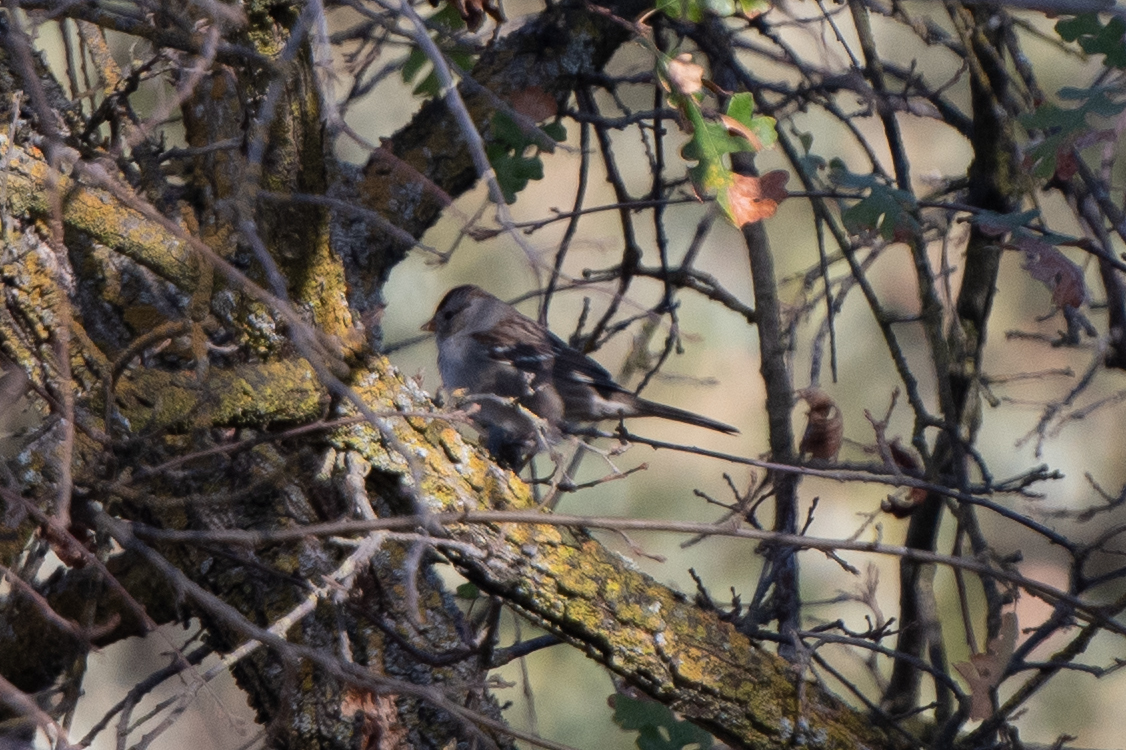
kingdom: Animalia
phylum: Chordata
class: Aves
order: Passeriformes
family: Passerellidae
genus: Zonotrichia
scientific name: Zonotrichia leucophrys
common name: White-crowned sparrow
